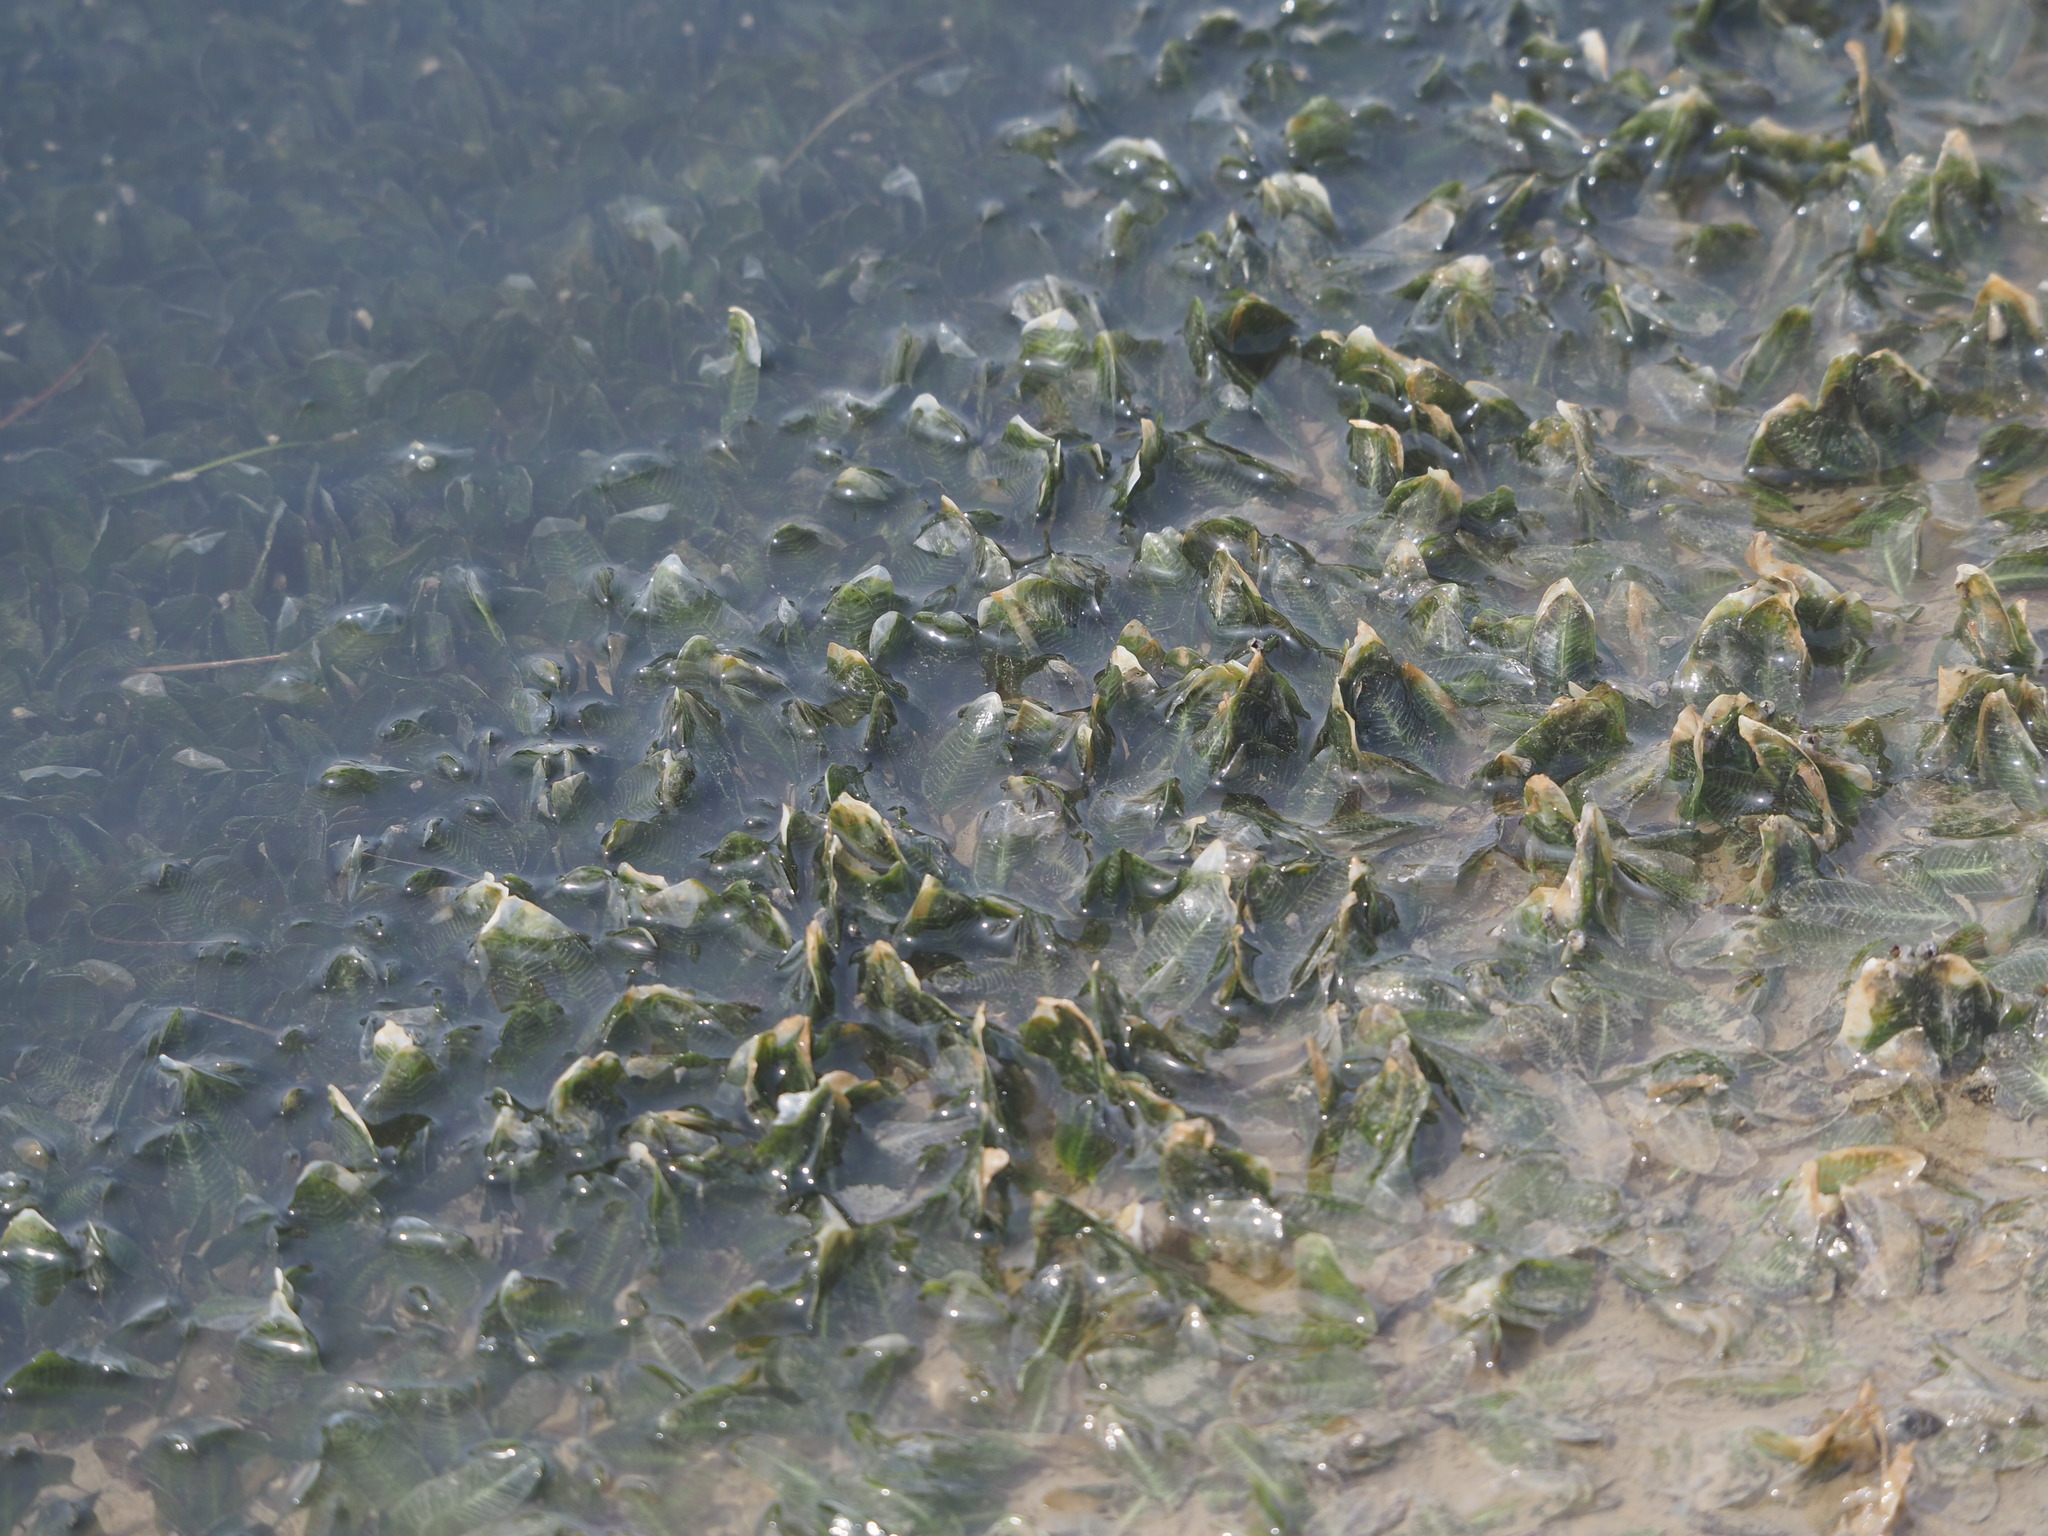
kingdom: Plantae
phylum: Tracheophyta
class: Liliopsida
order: Alismatales
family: Hydrocharitaceae
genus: Halophila
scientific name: Halophila ovalis
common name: Species code: ho
